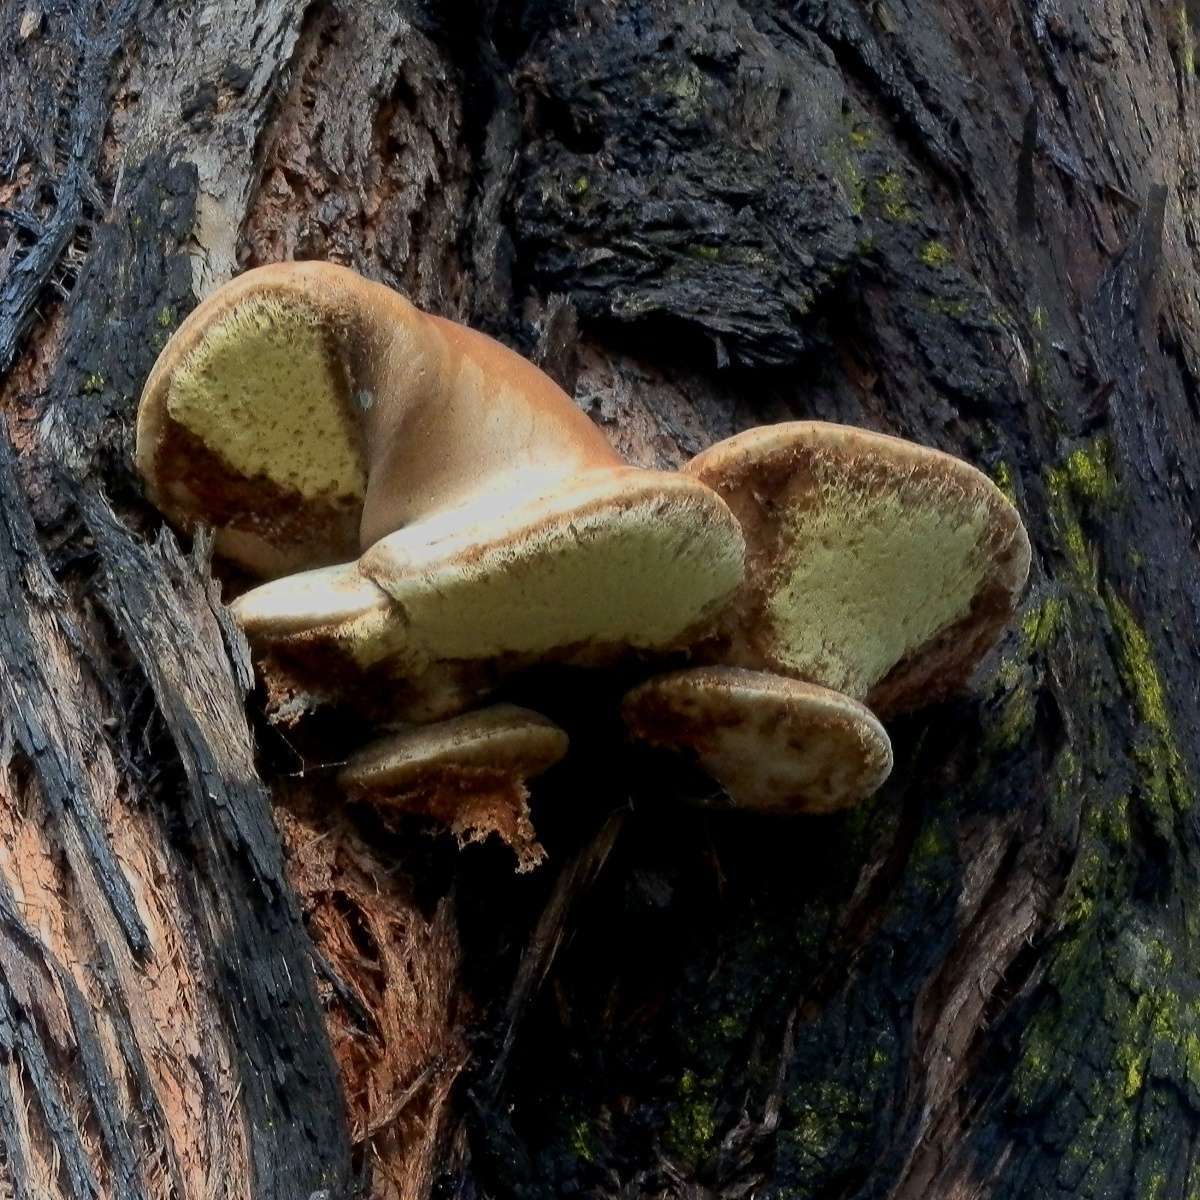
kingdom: Fungi
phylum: Basidiomycota
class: Agaricomycetes
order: Polyporales
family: Laetiporaceae
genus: Laetiporus
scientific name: Laetiporus portentosus
